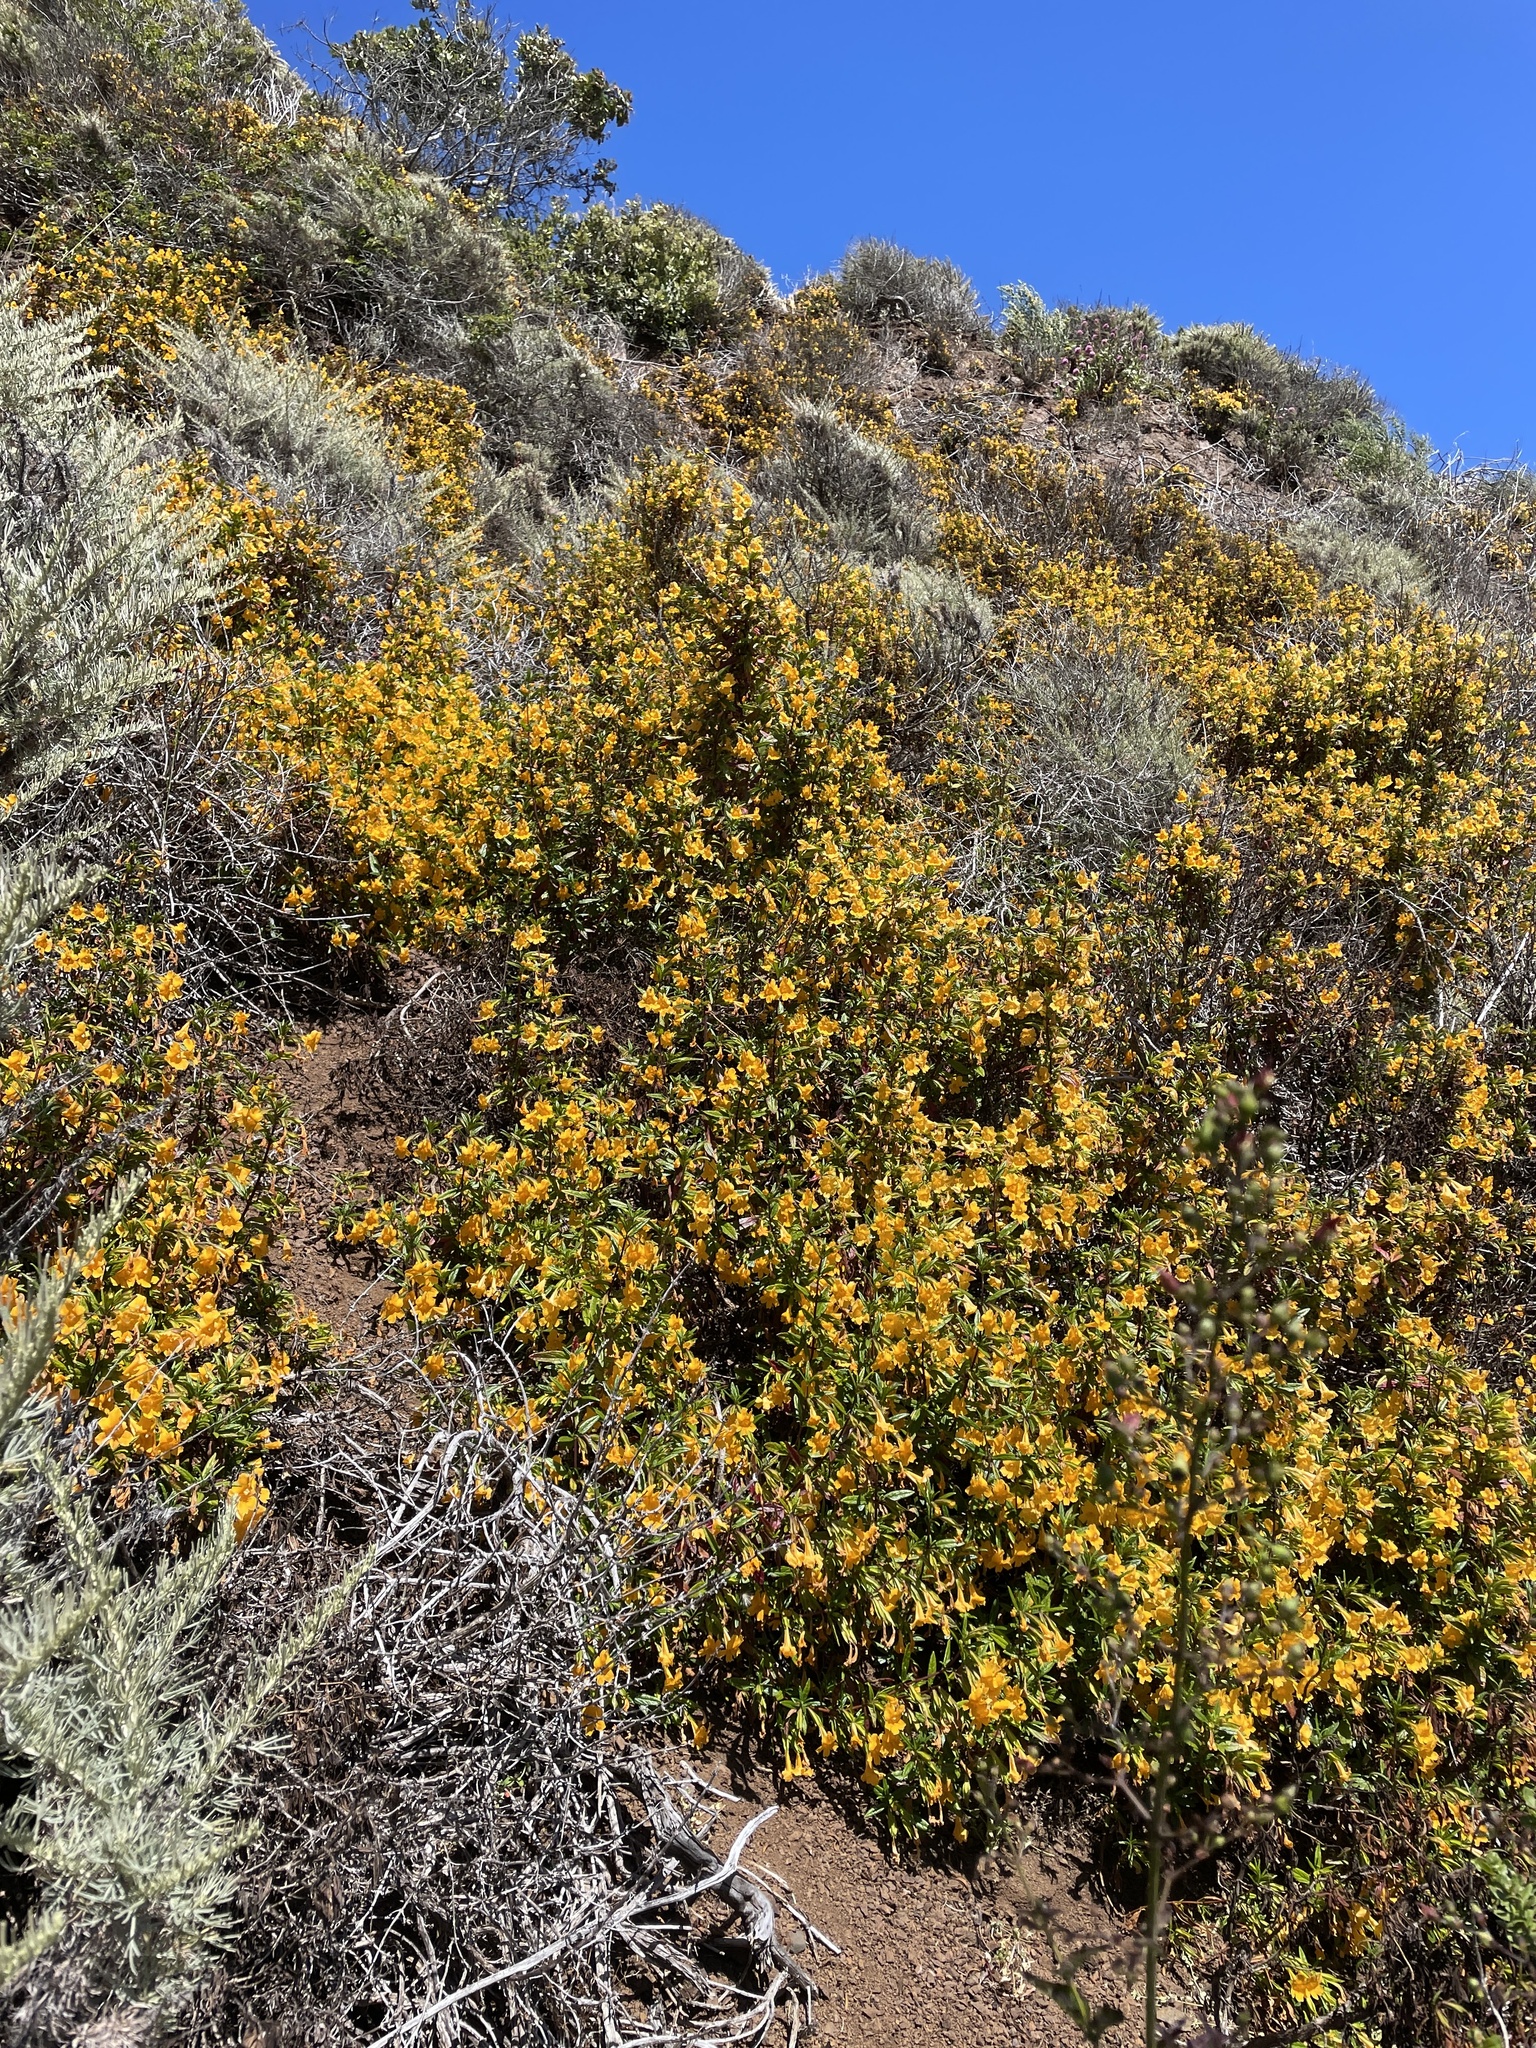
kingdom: Plantae
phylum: Tracheophyta
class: Magnoliopsida
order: Lamiales
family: Phrymaceae
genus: Diplacus
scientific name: Diplacus aurantiacus
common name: Bush monkey-flower
